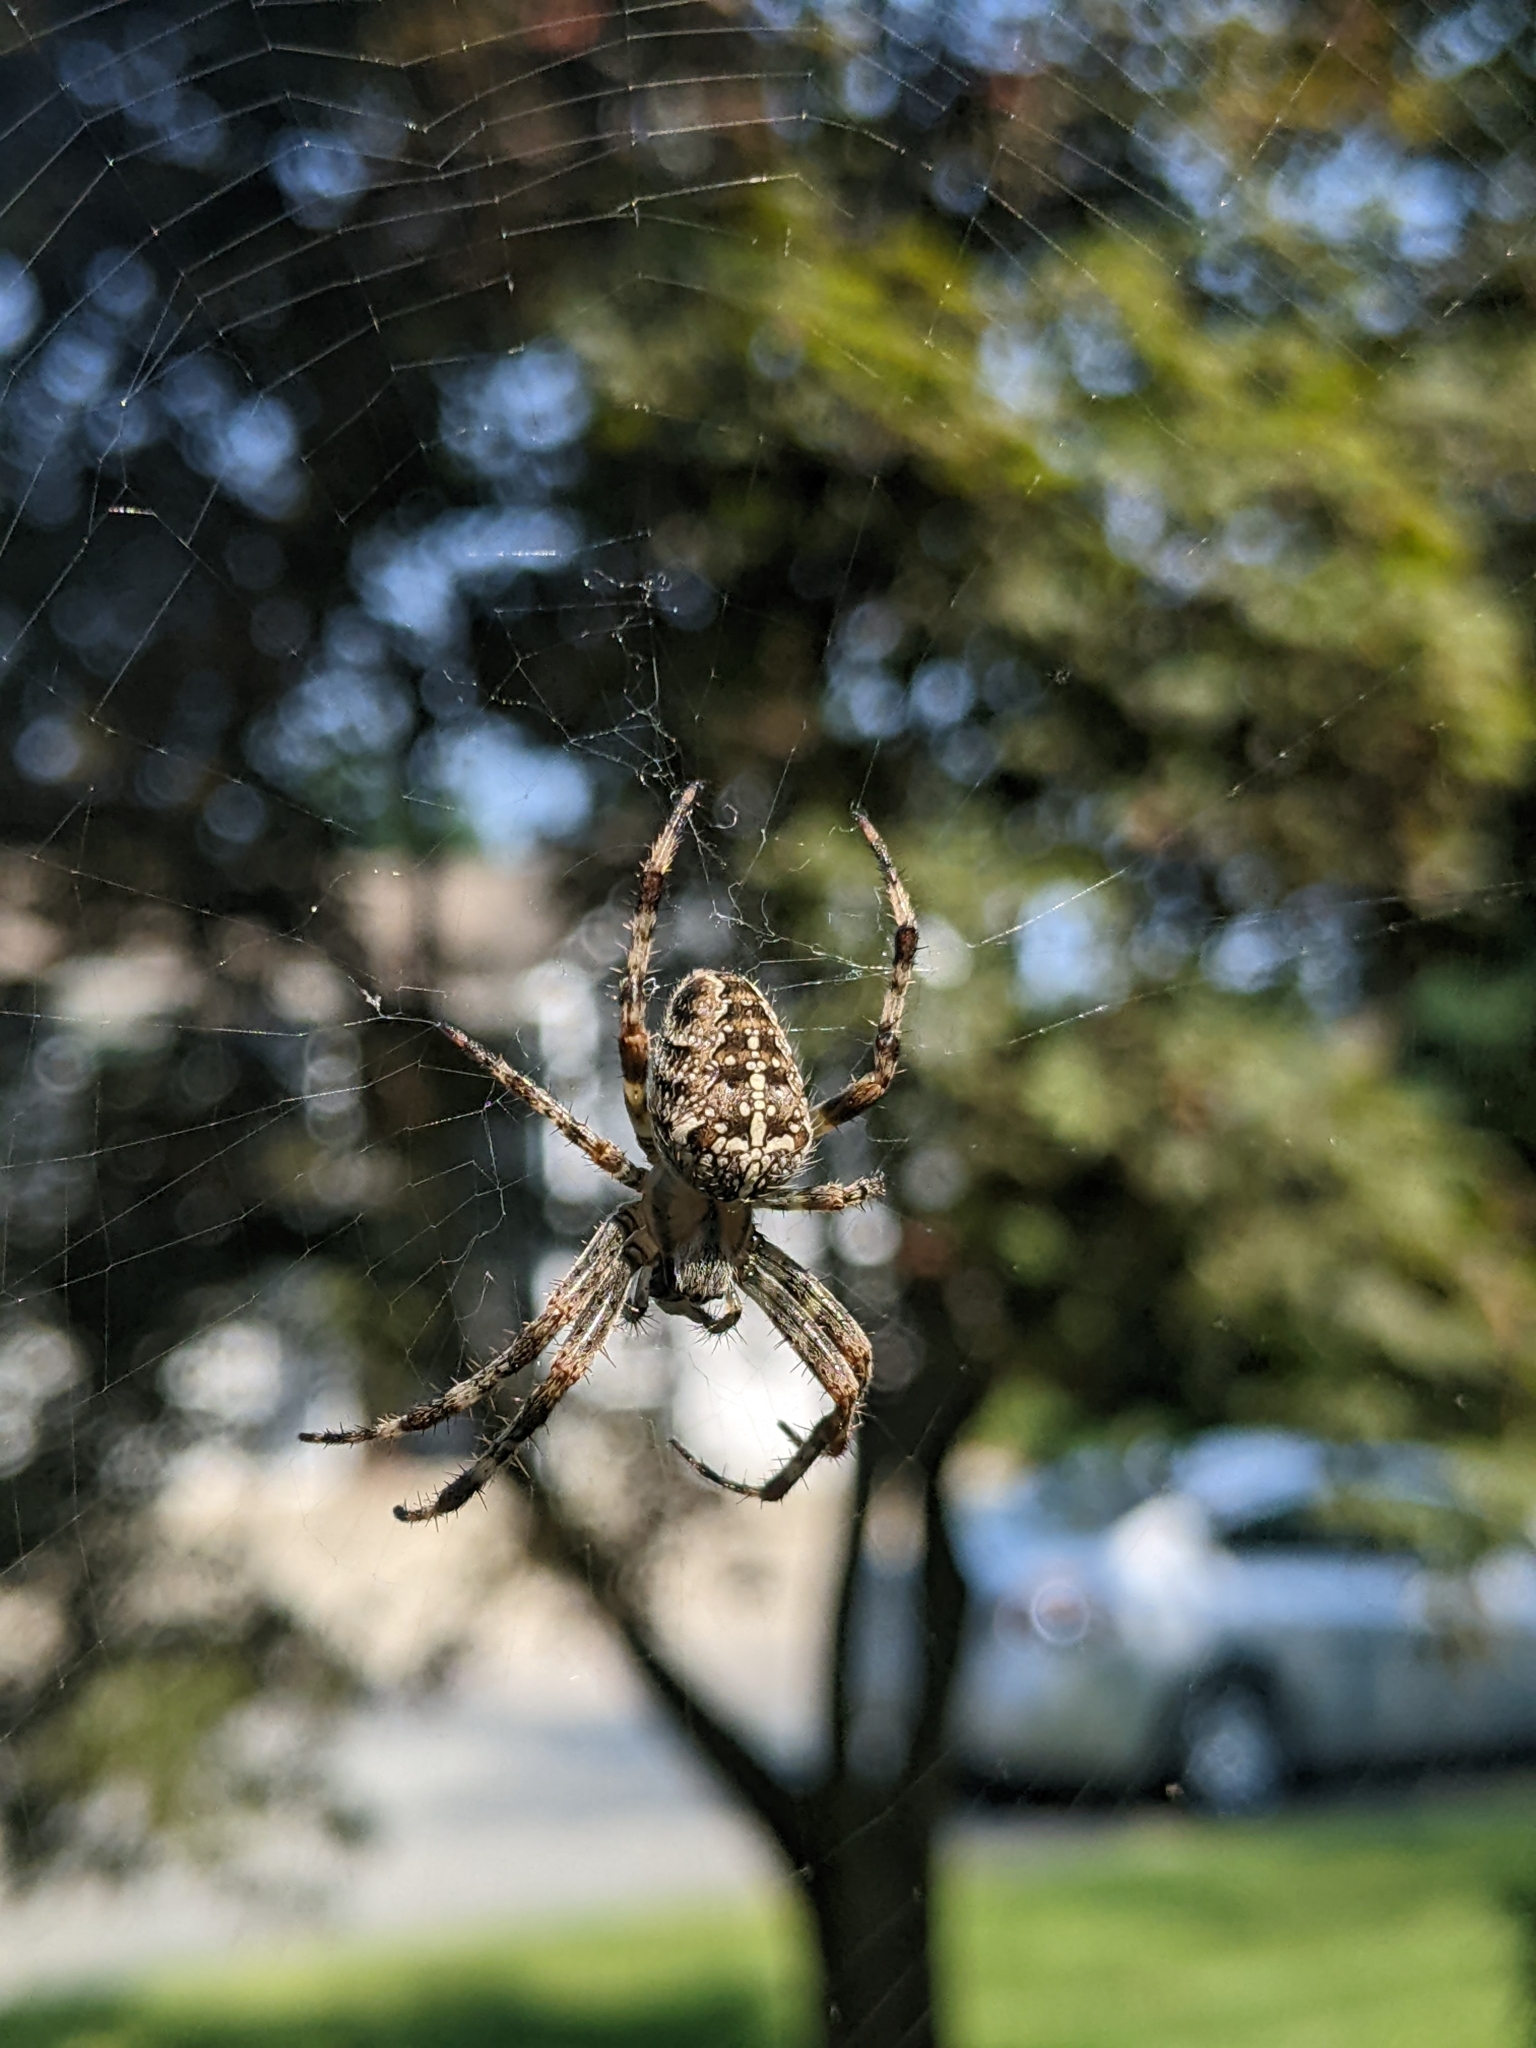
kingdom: Animalia
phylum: Arthropoda
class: Arachnida
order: Araneae
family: Araneidae
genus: Araneus
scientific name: Araneus diadematus
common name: Cross orbweaver
